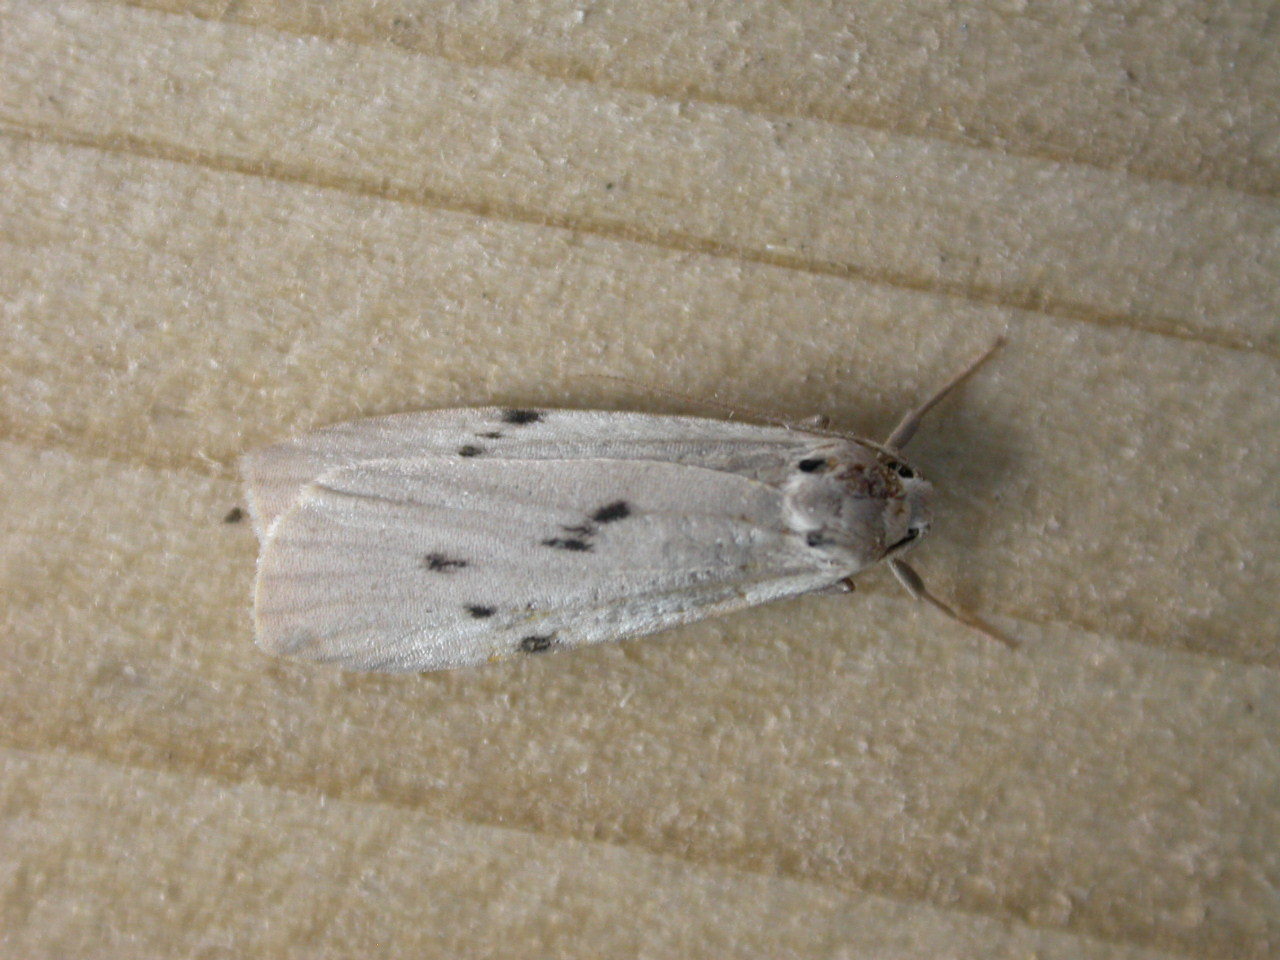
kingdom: Animalia
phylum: Arthropoda
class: Insecta
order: Lepidoptera
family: Erebidae
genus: Pelosia
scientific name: Pelosia muscerda
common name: Dotted footman
